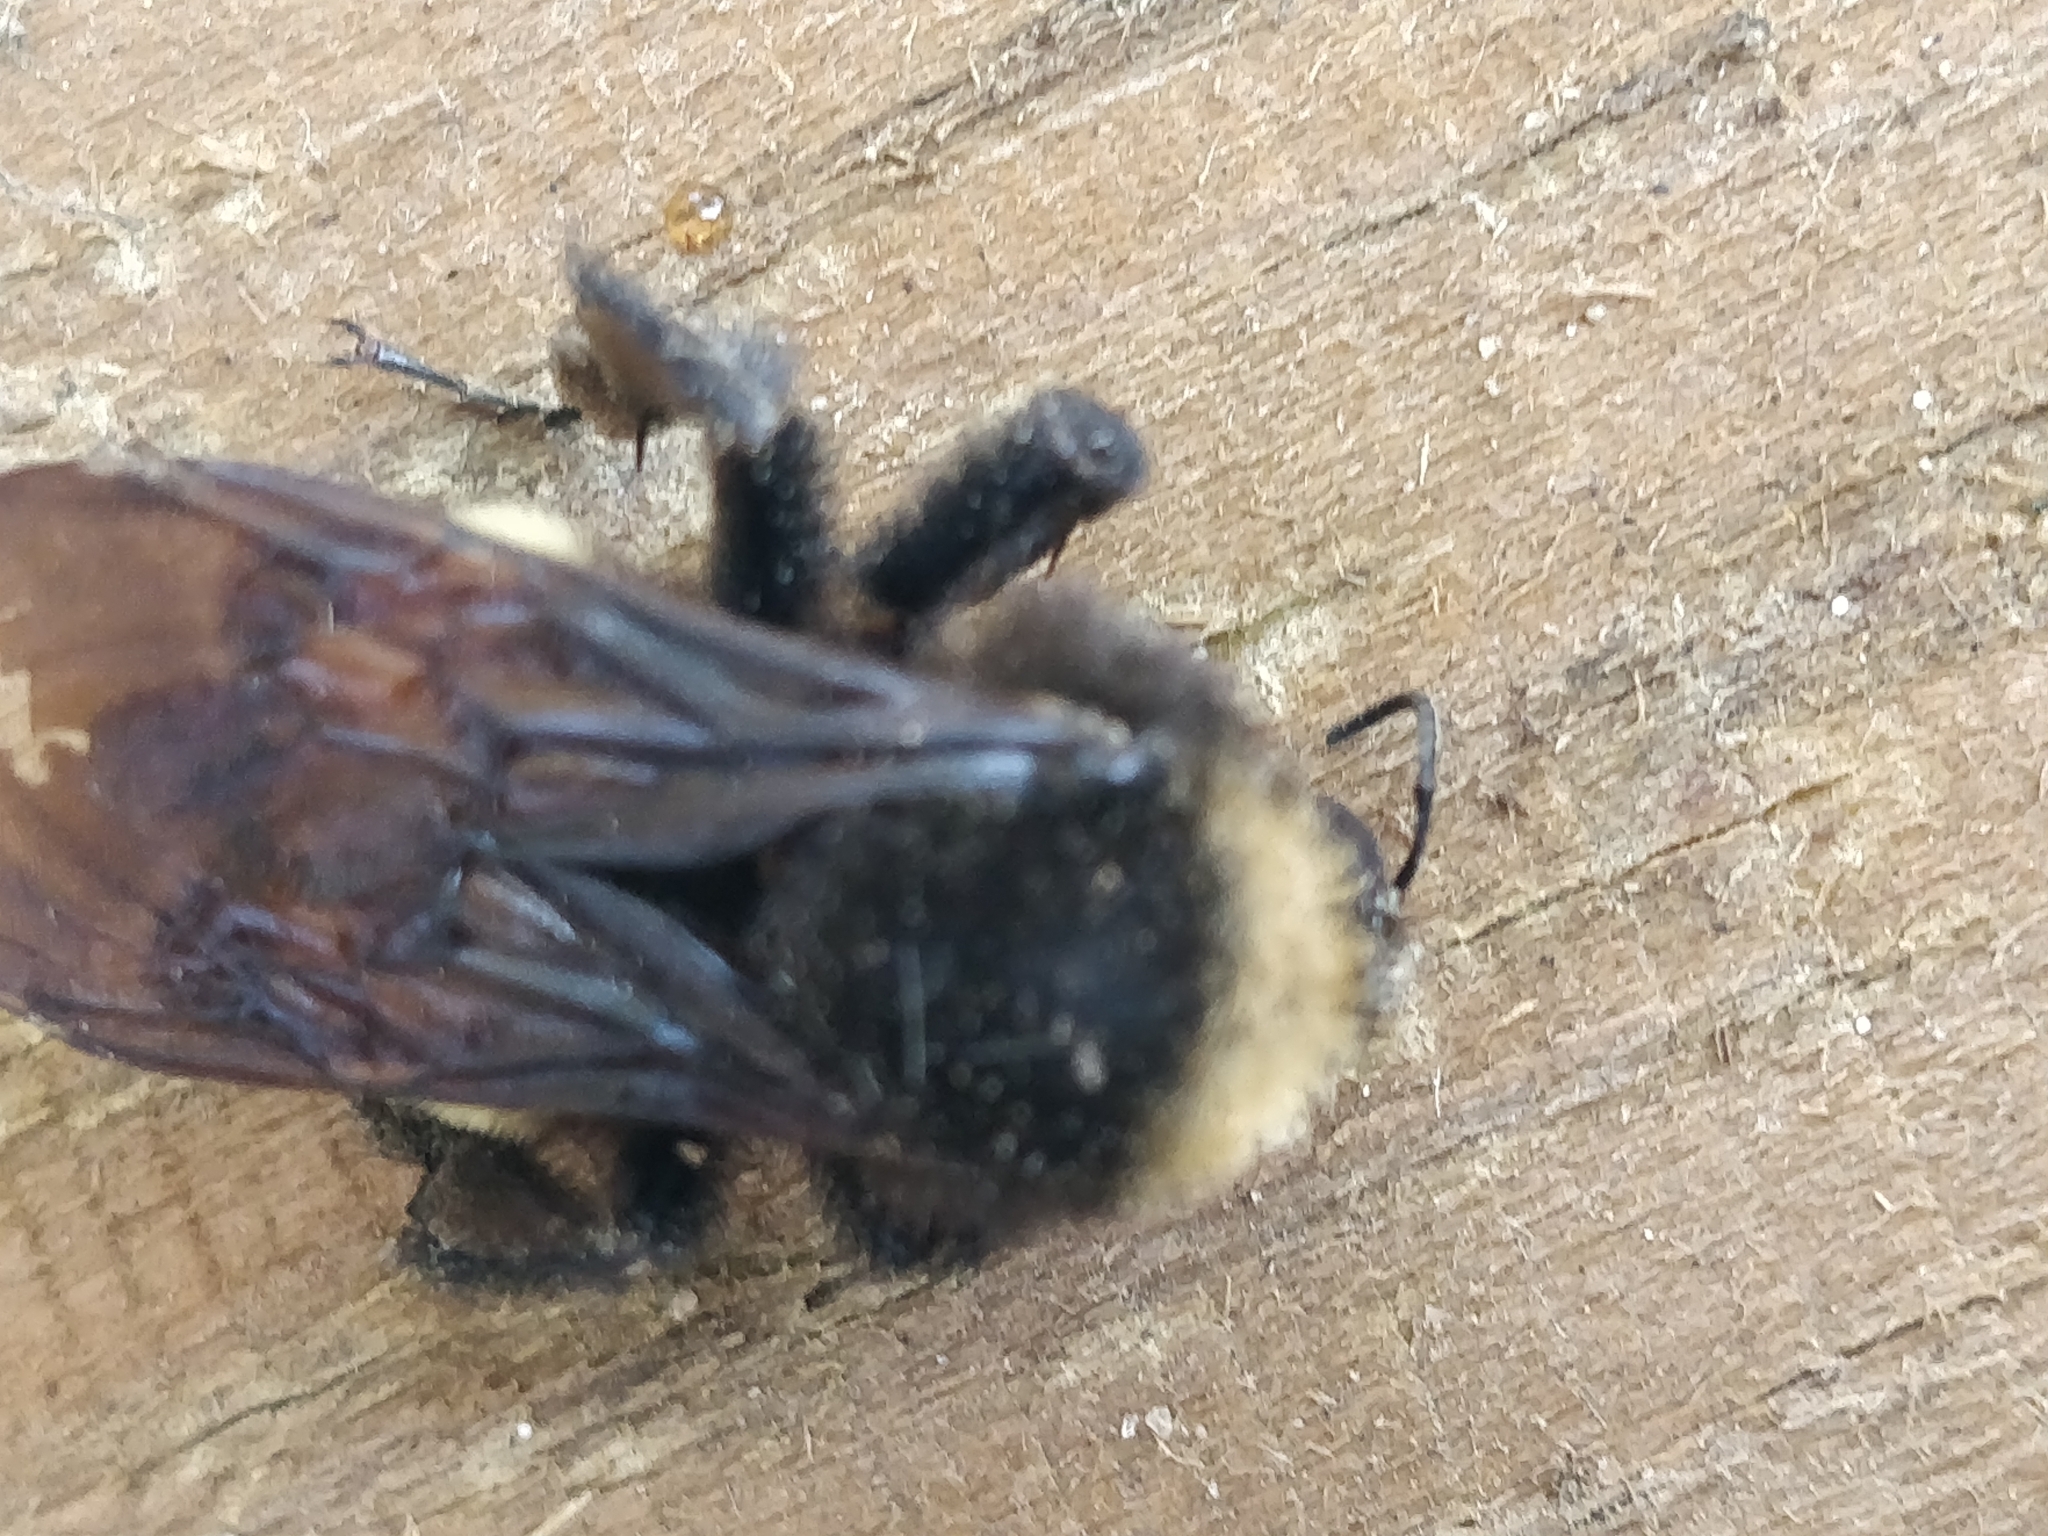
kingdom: Animalia
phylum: Arthropoda
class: Insecta
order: Hymenoptera
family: Apidae
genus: Bombus
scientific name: Bombus pensylvanicus
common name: Bumble bee
